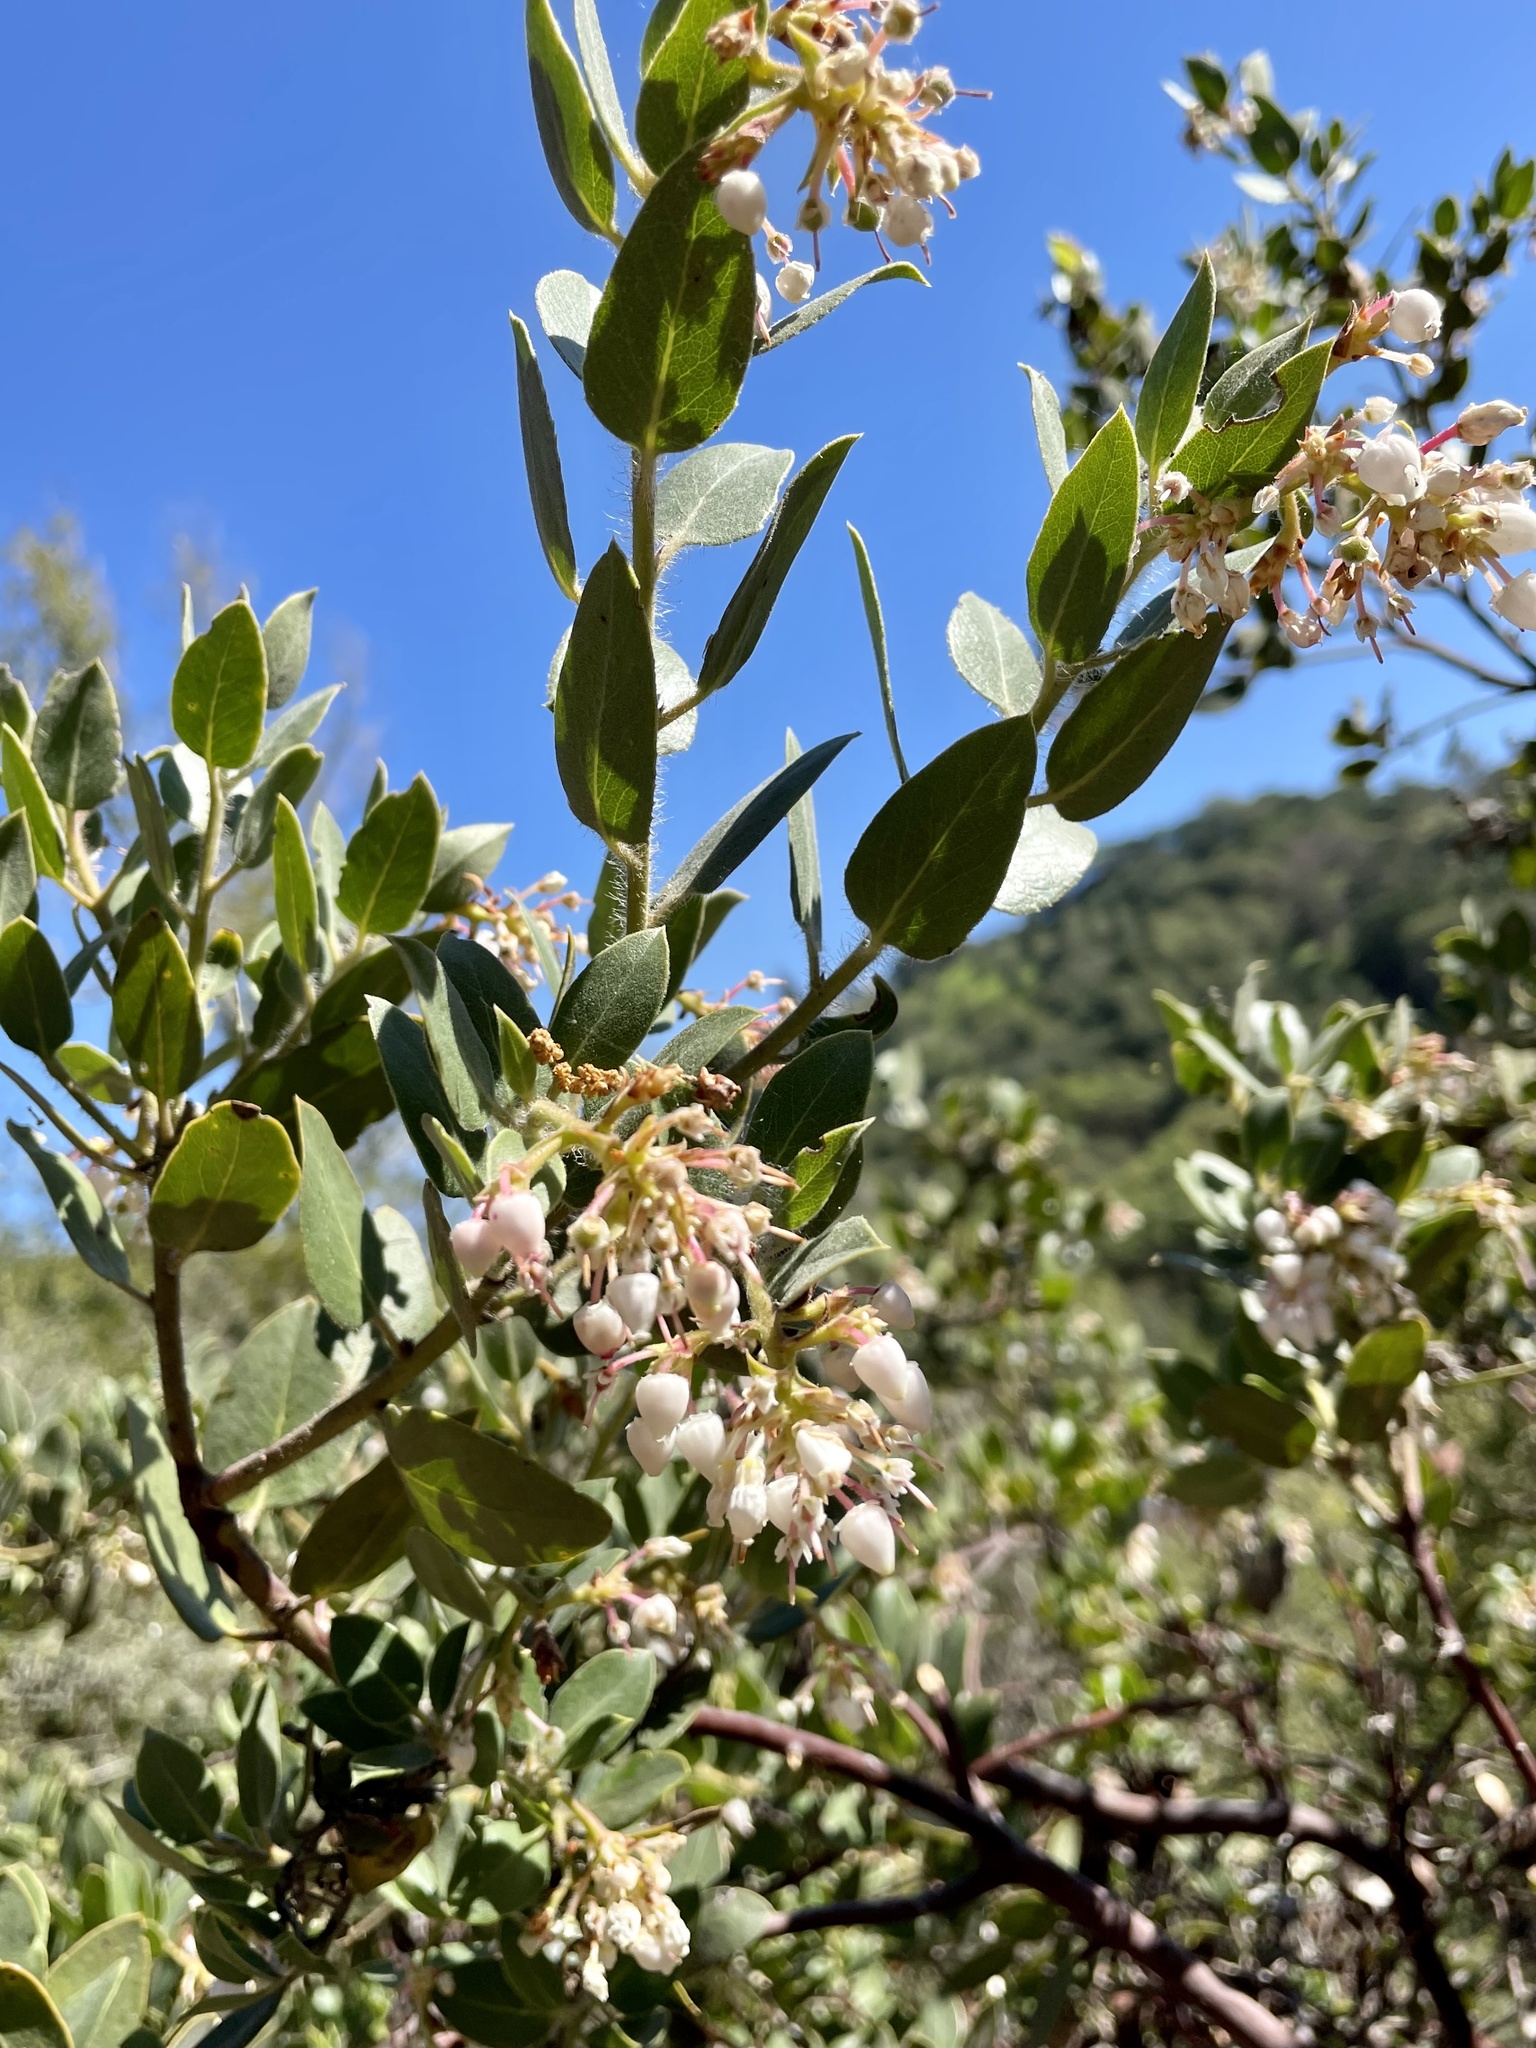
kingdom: Plantae
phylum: Tracheophyta
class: Magnoliopsida
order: Ericales
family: Ericaceae
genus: Arctostaphylos
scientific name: Arctostaphylos crustacea
